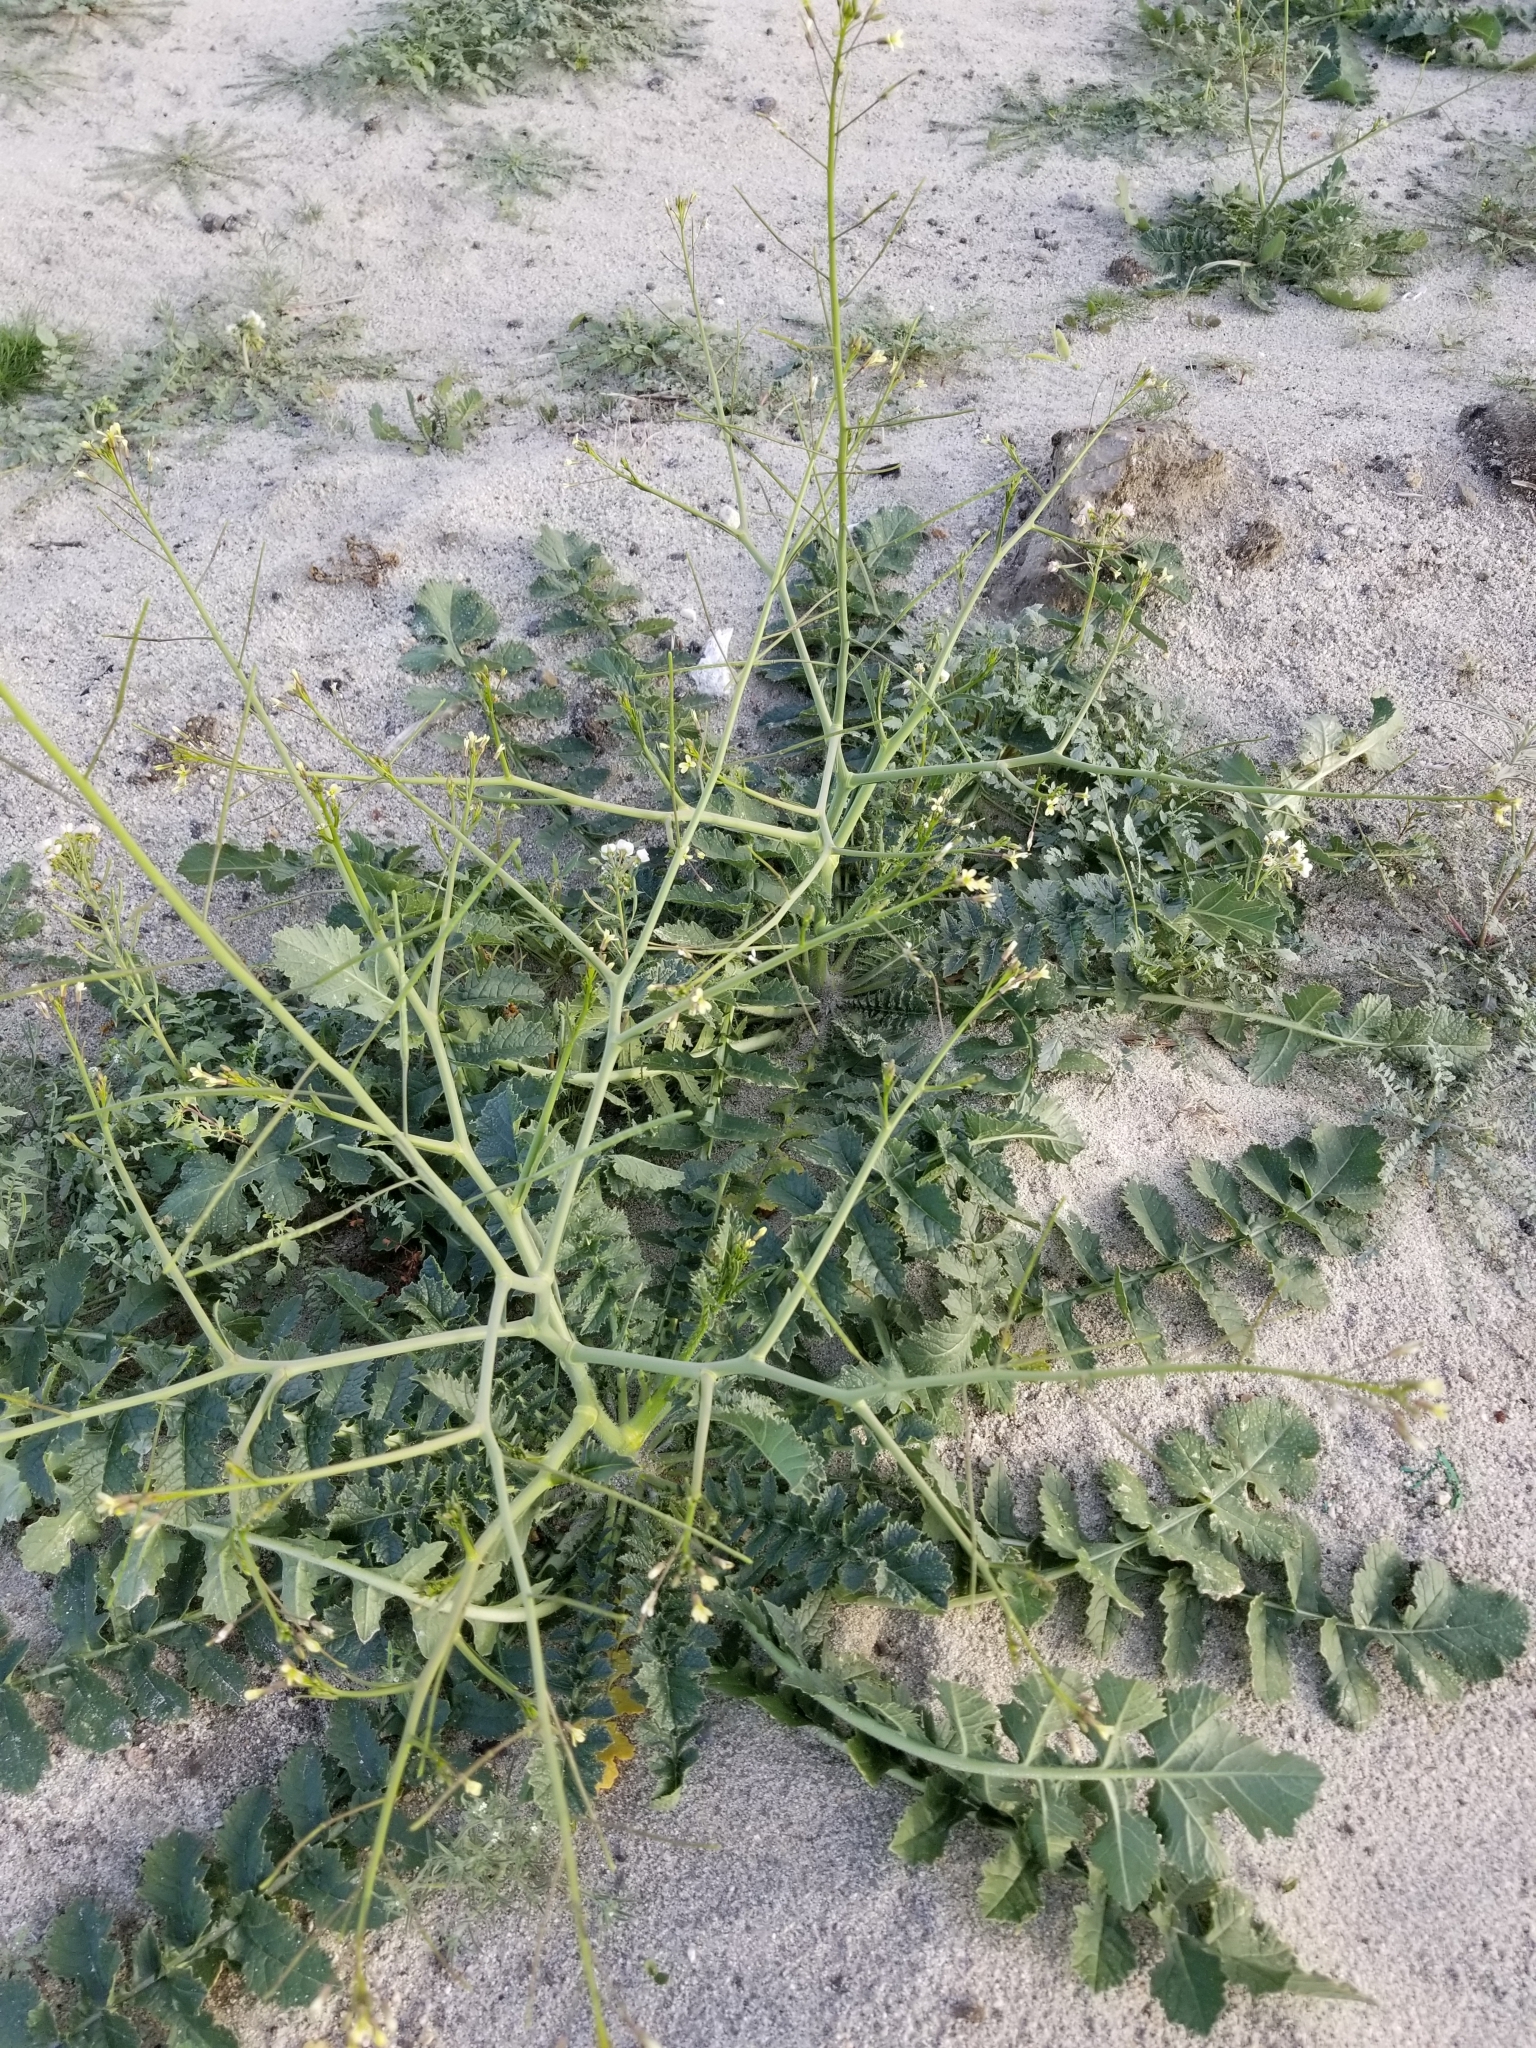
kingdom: Plantae
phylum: Tracheophyta
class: Magnoliopsida
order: Brassicales
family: Brassicaceae
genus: Brassica
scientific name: Brassica tournefortii
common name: Pale cabbage
